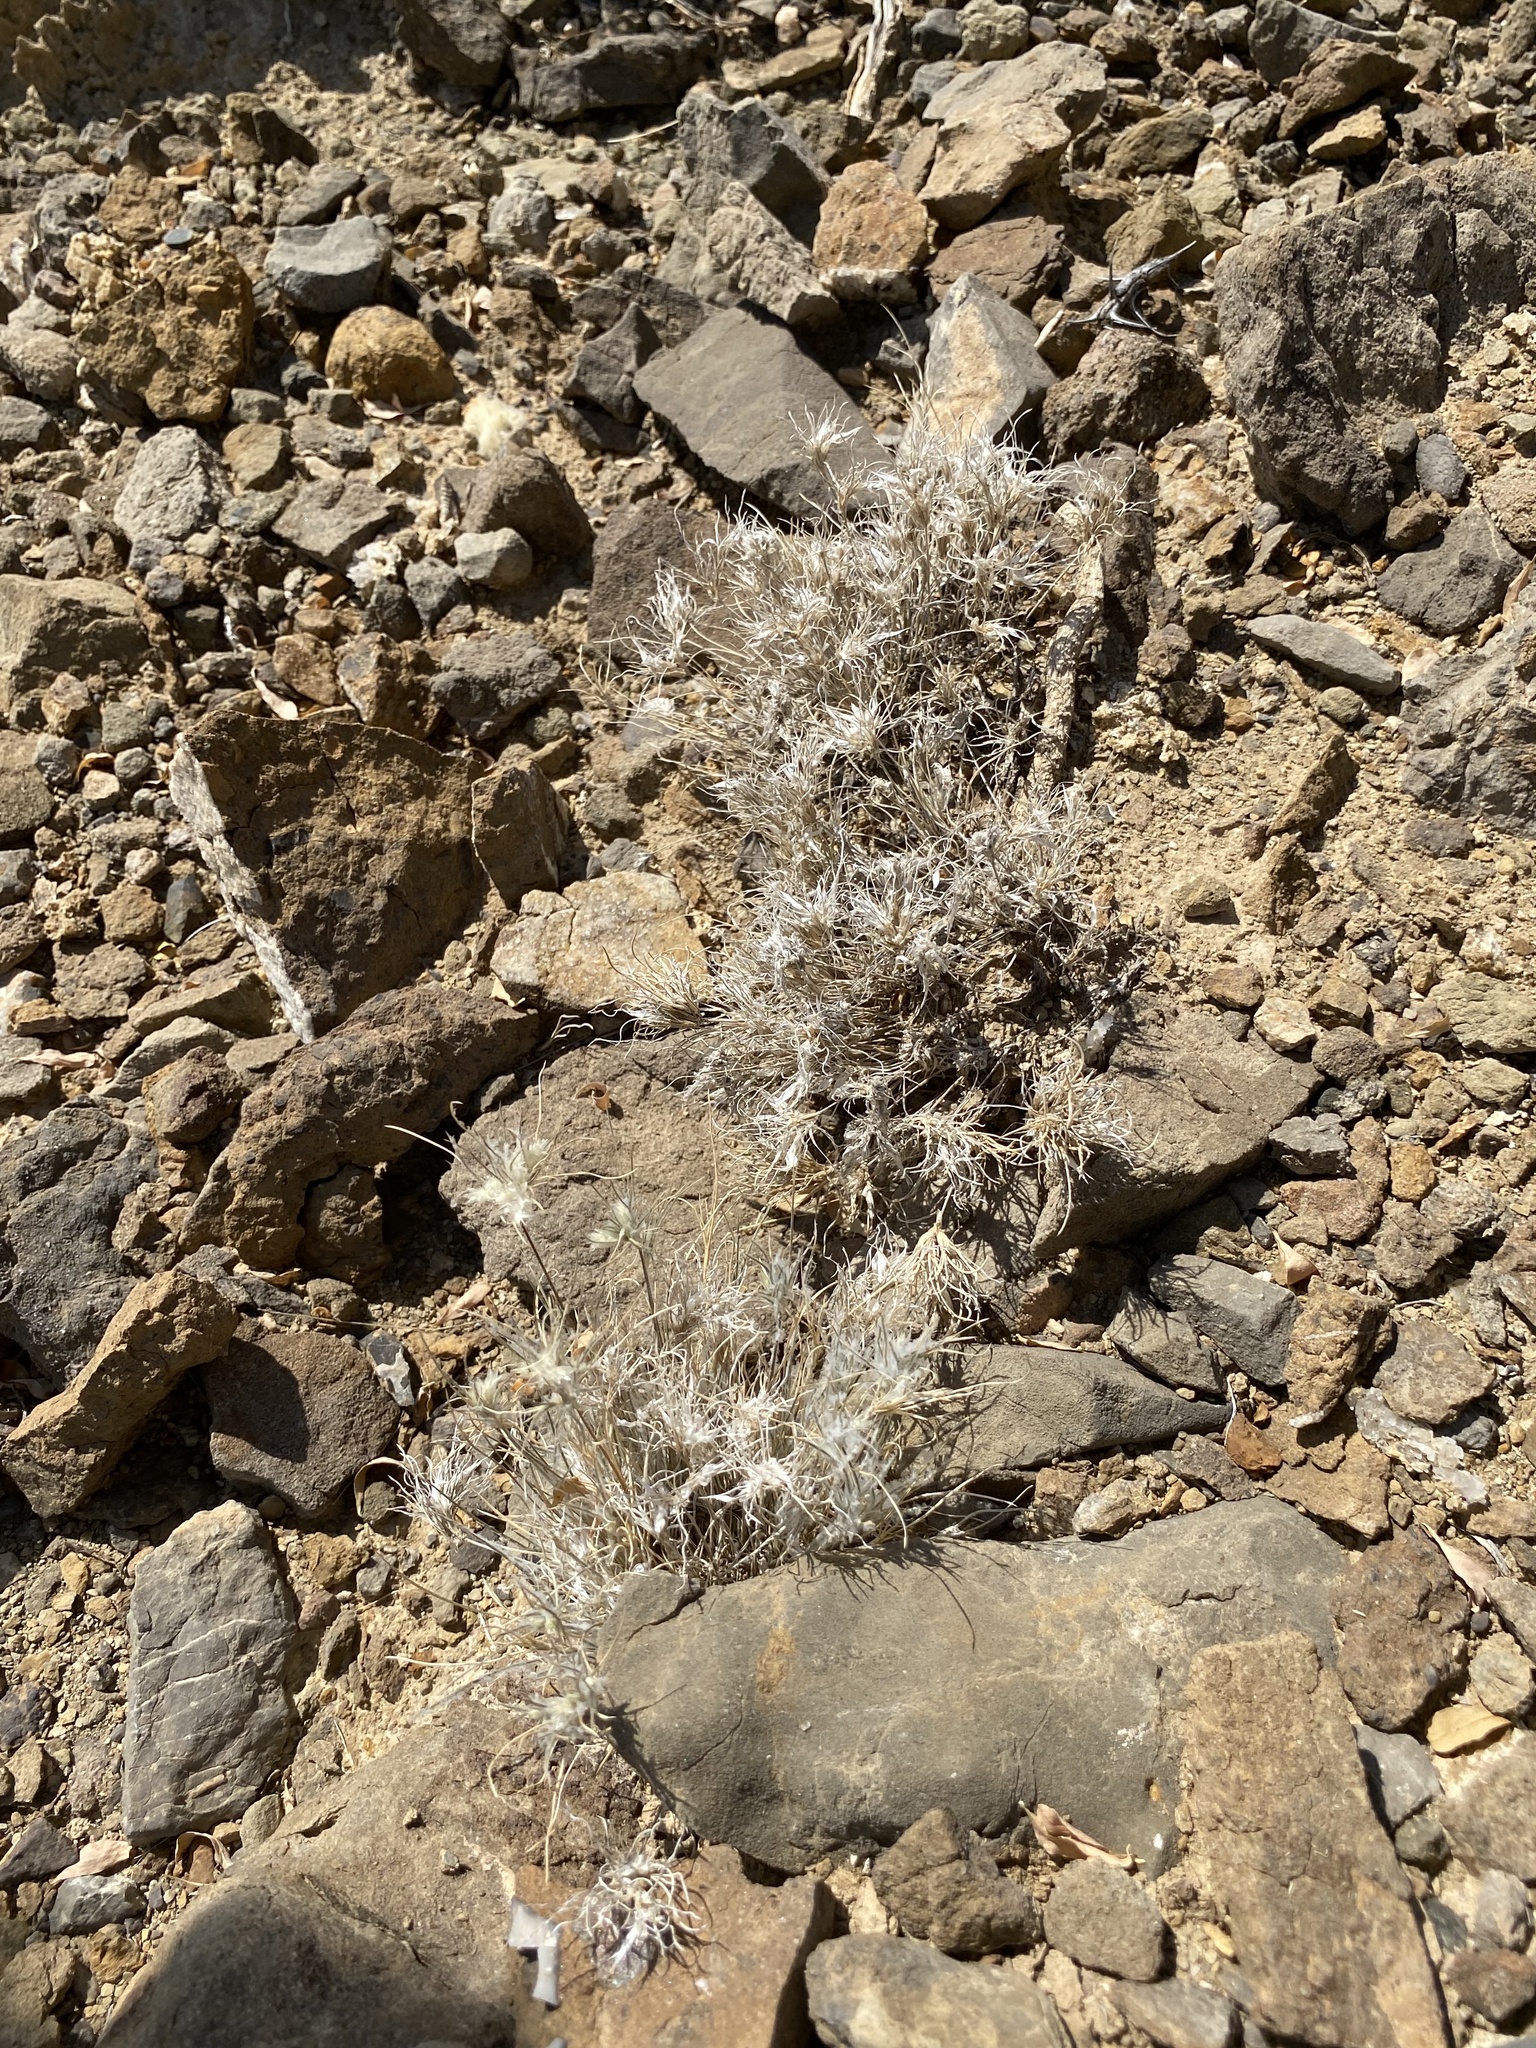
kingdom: Plantae
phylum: Tracheophyta
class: Liliopsida
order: Poales
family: Poaceae
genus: Dasyochloa
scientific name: Dasyochloa pulchella
